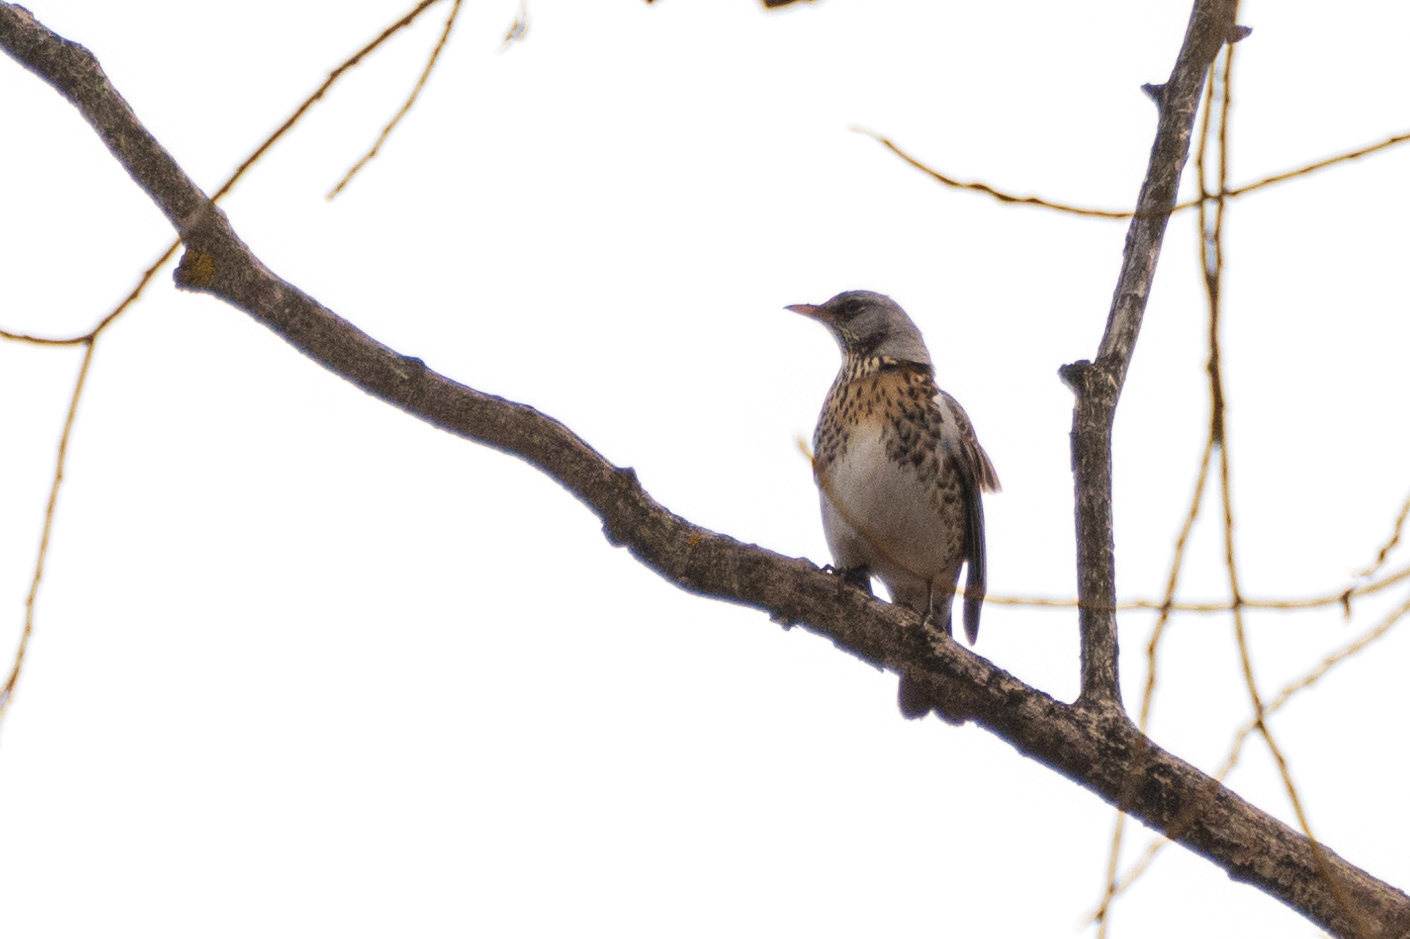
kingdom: Animalia
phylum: Chordata
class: Aves
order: Passeriformes
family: Turdidae
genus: Turdus
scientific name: Turdus pilaris
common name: Fieldfare
